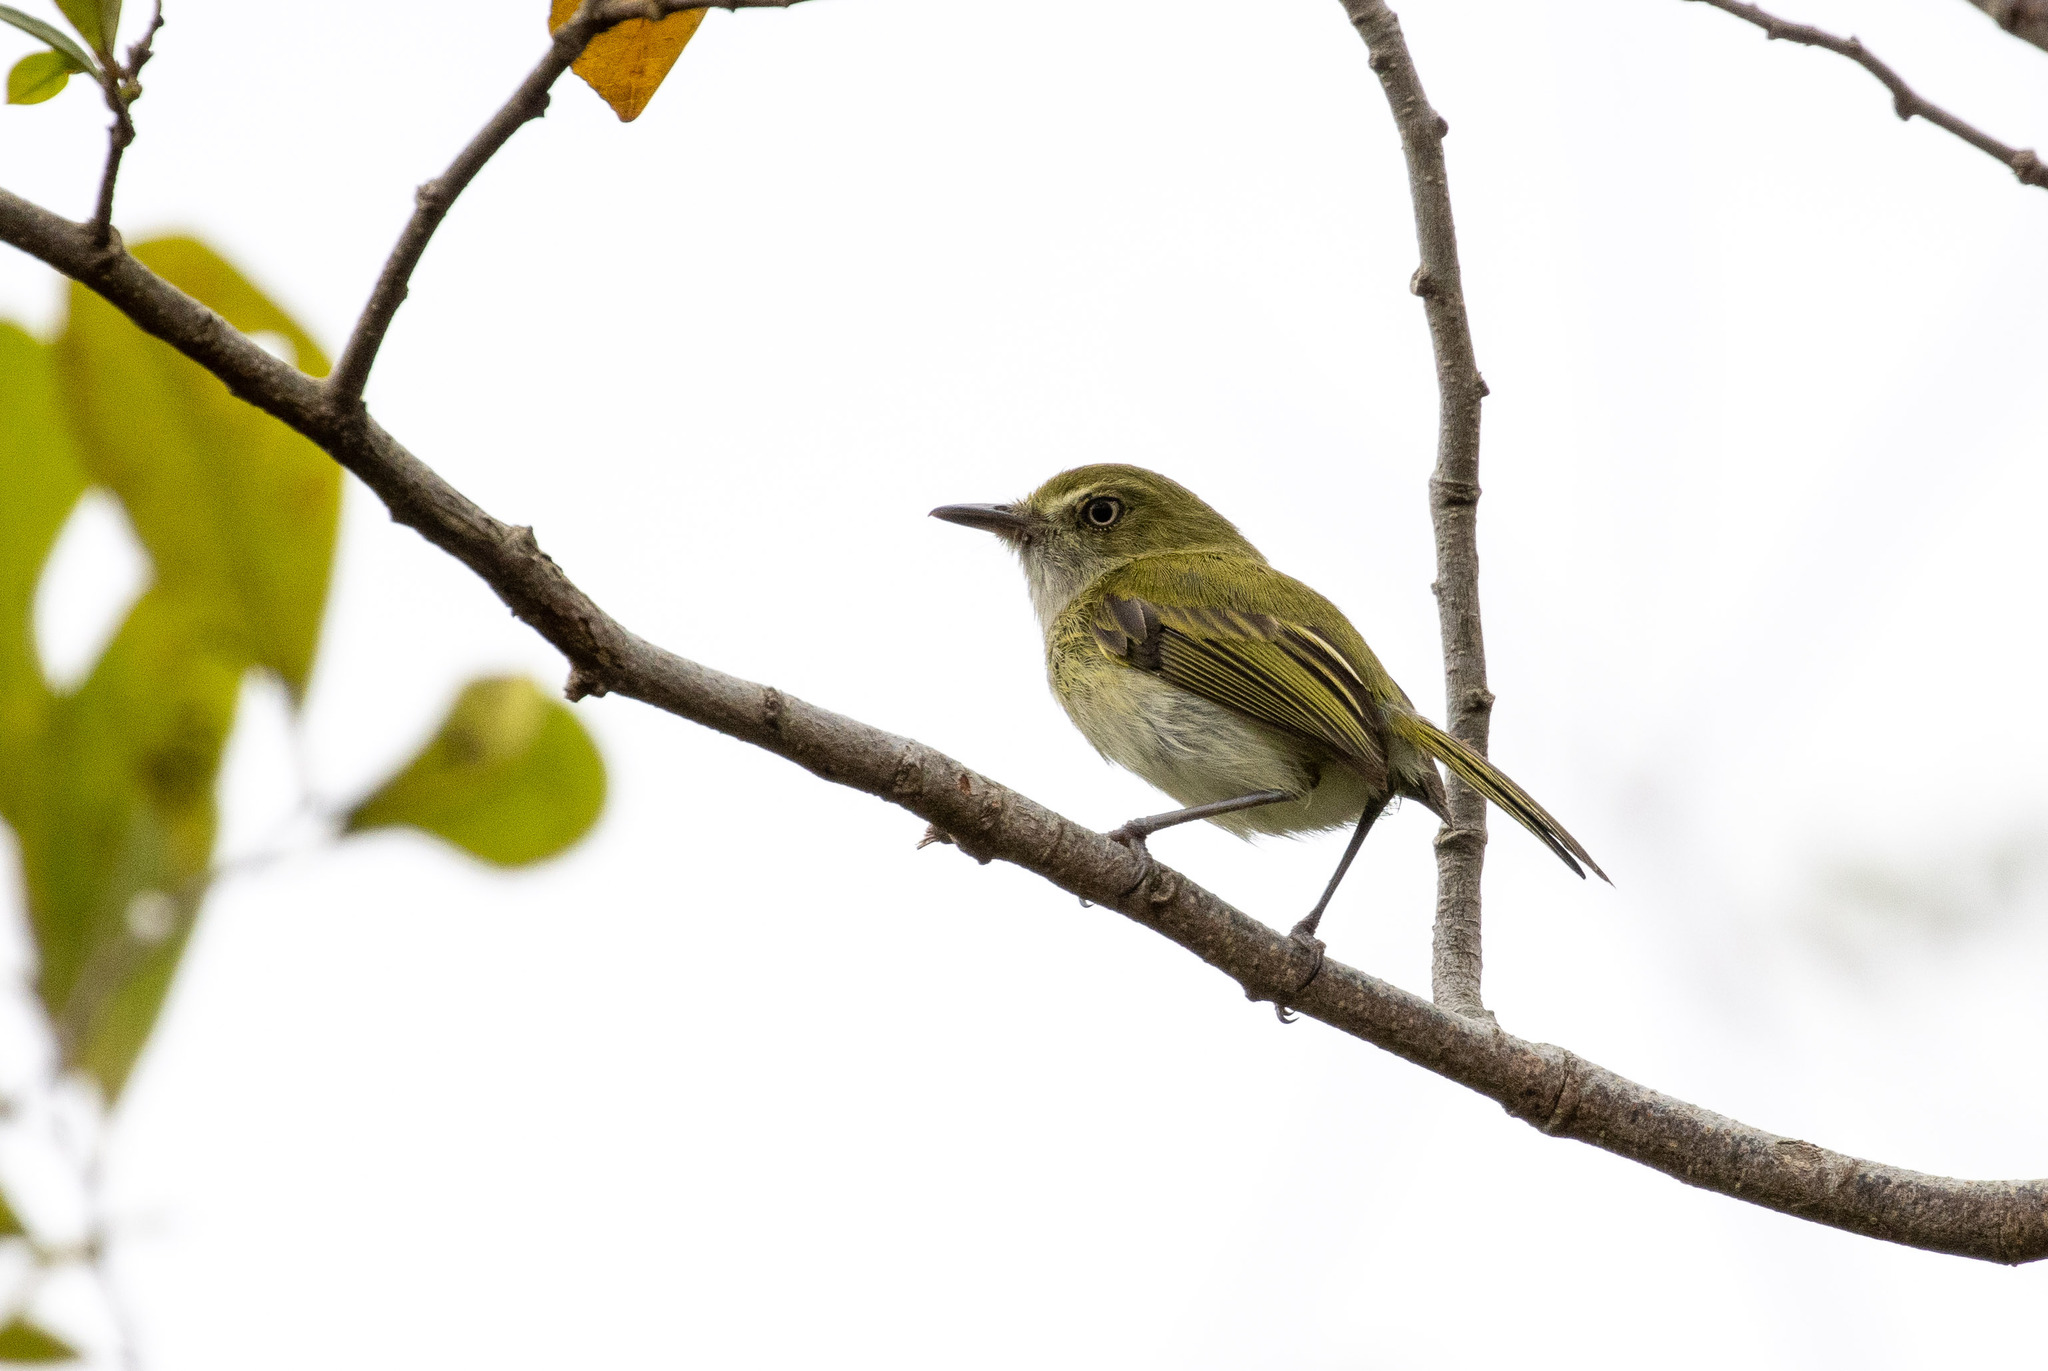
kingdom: Animalia
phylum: Chordata
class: Aves
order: Passeriformes
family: Tyrannidae
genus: Hemitriccus
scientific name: Hemitriccus nidipendulus
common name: Hangnest tody-tyrant
